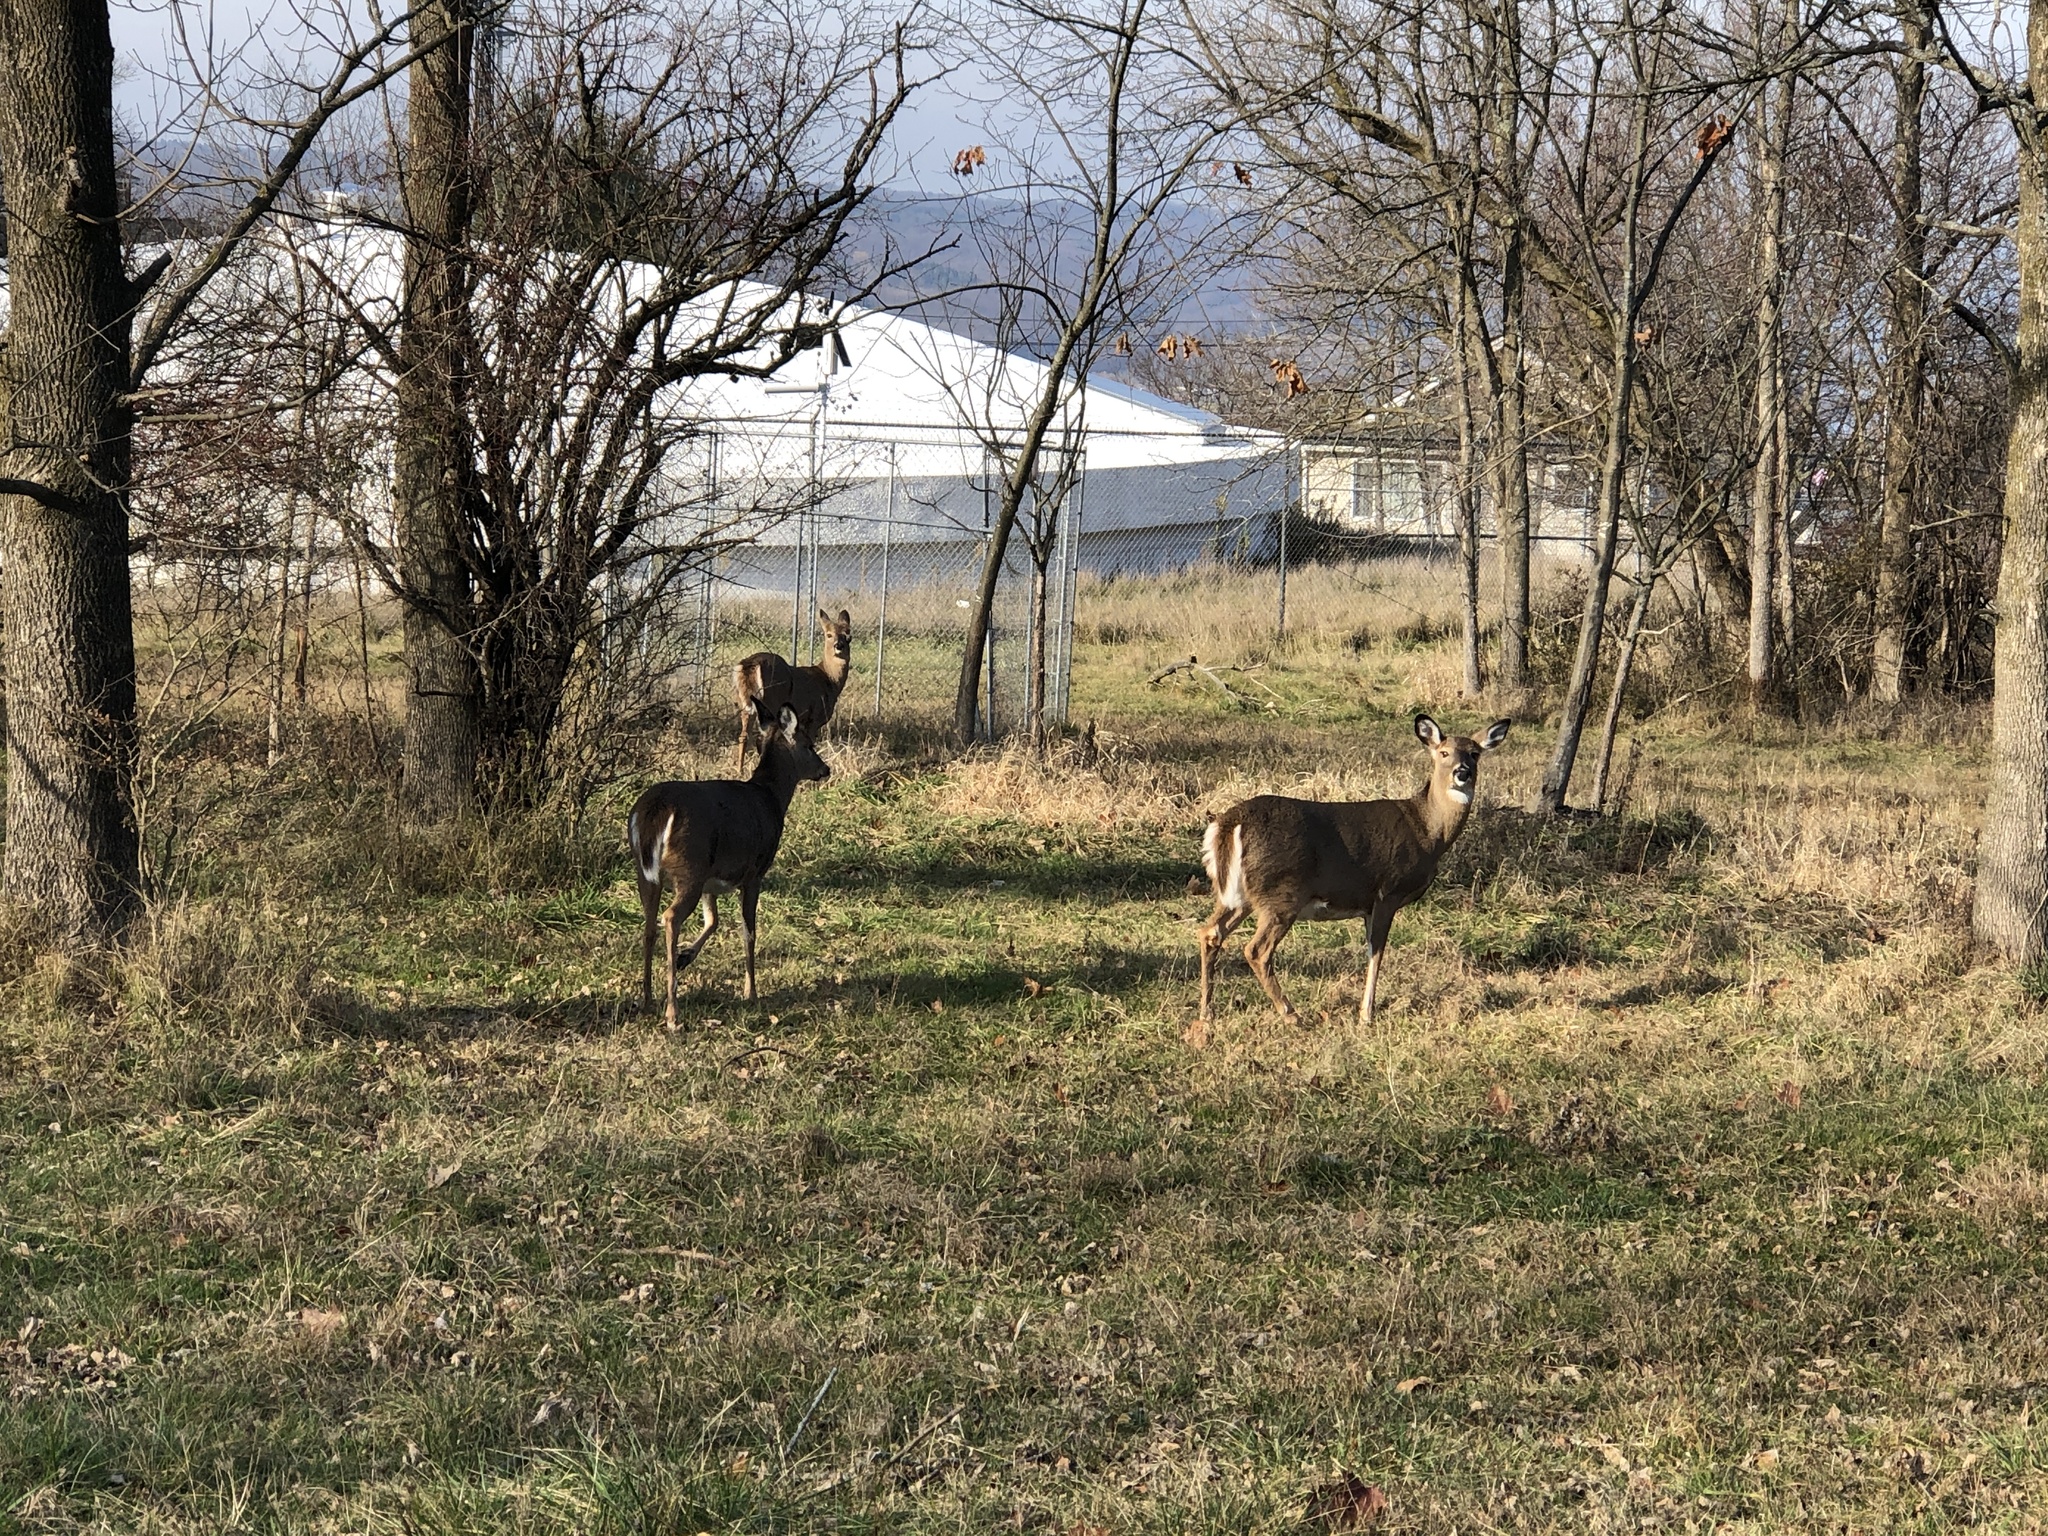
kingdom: Animalia
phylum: Chordata
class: Mammalia
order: Artiodactyla
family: Cervidae
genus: Odocoileus
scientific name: Odocoileus virginianus
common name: White-tailed deer
